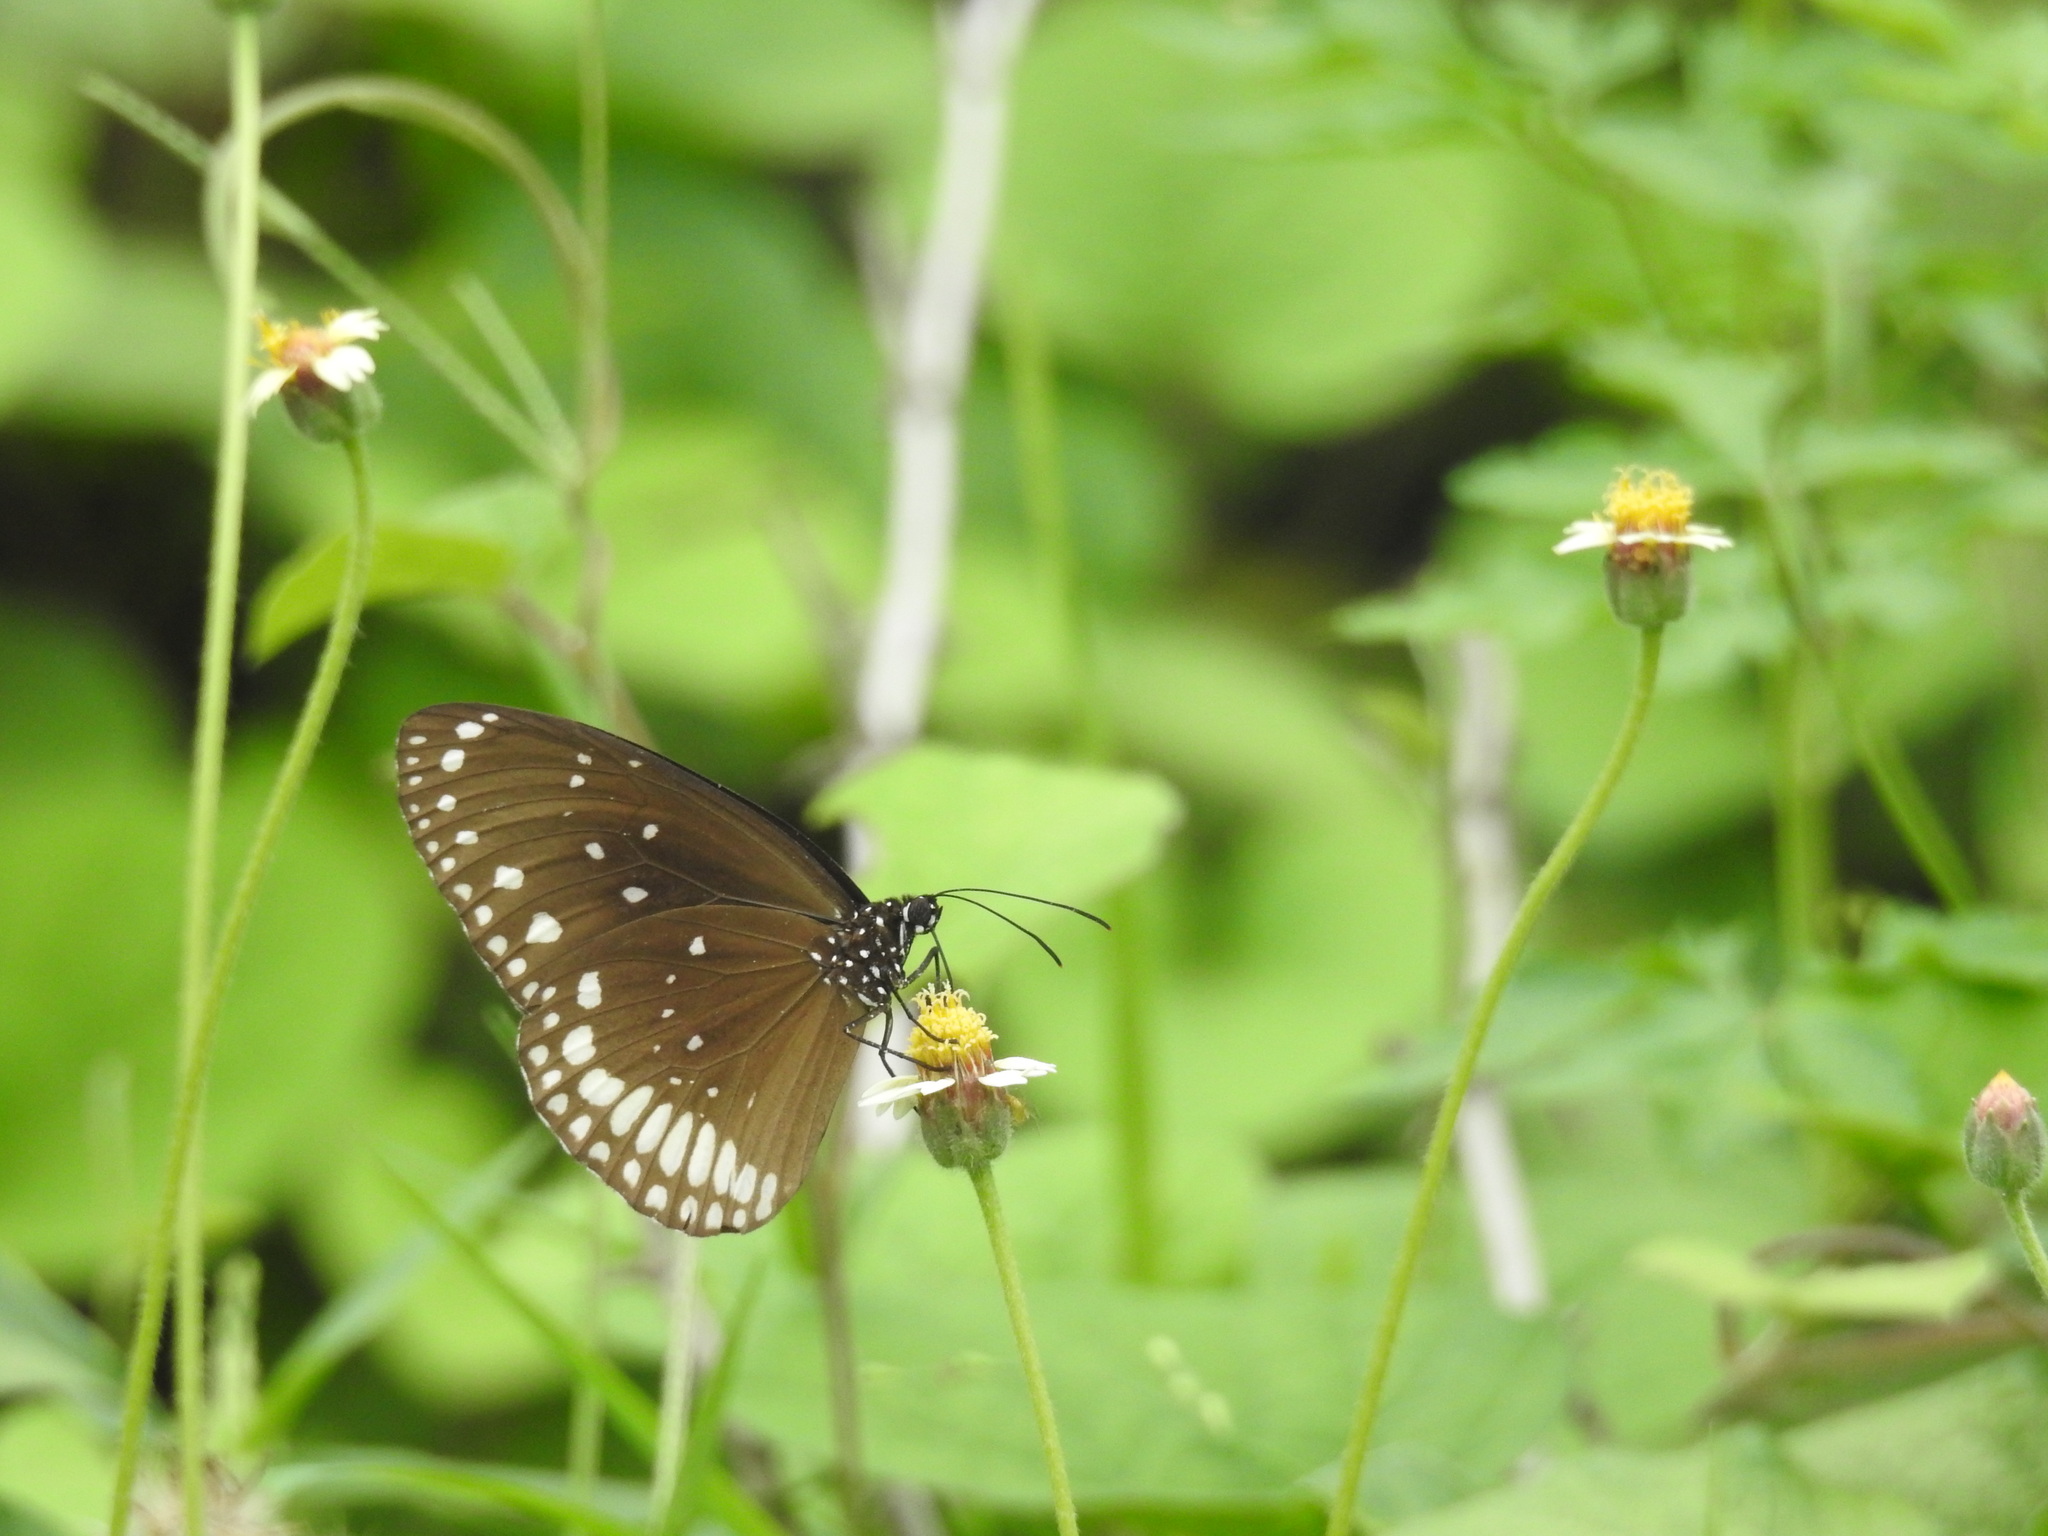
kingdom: Animalia
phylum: Arthropoda
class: Insecta
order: Lepidoptera
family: Nymphalidae
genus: Euploea
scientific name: Euploea sylvester
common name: Double-branded crow butterfly
